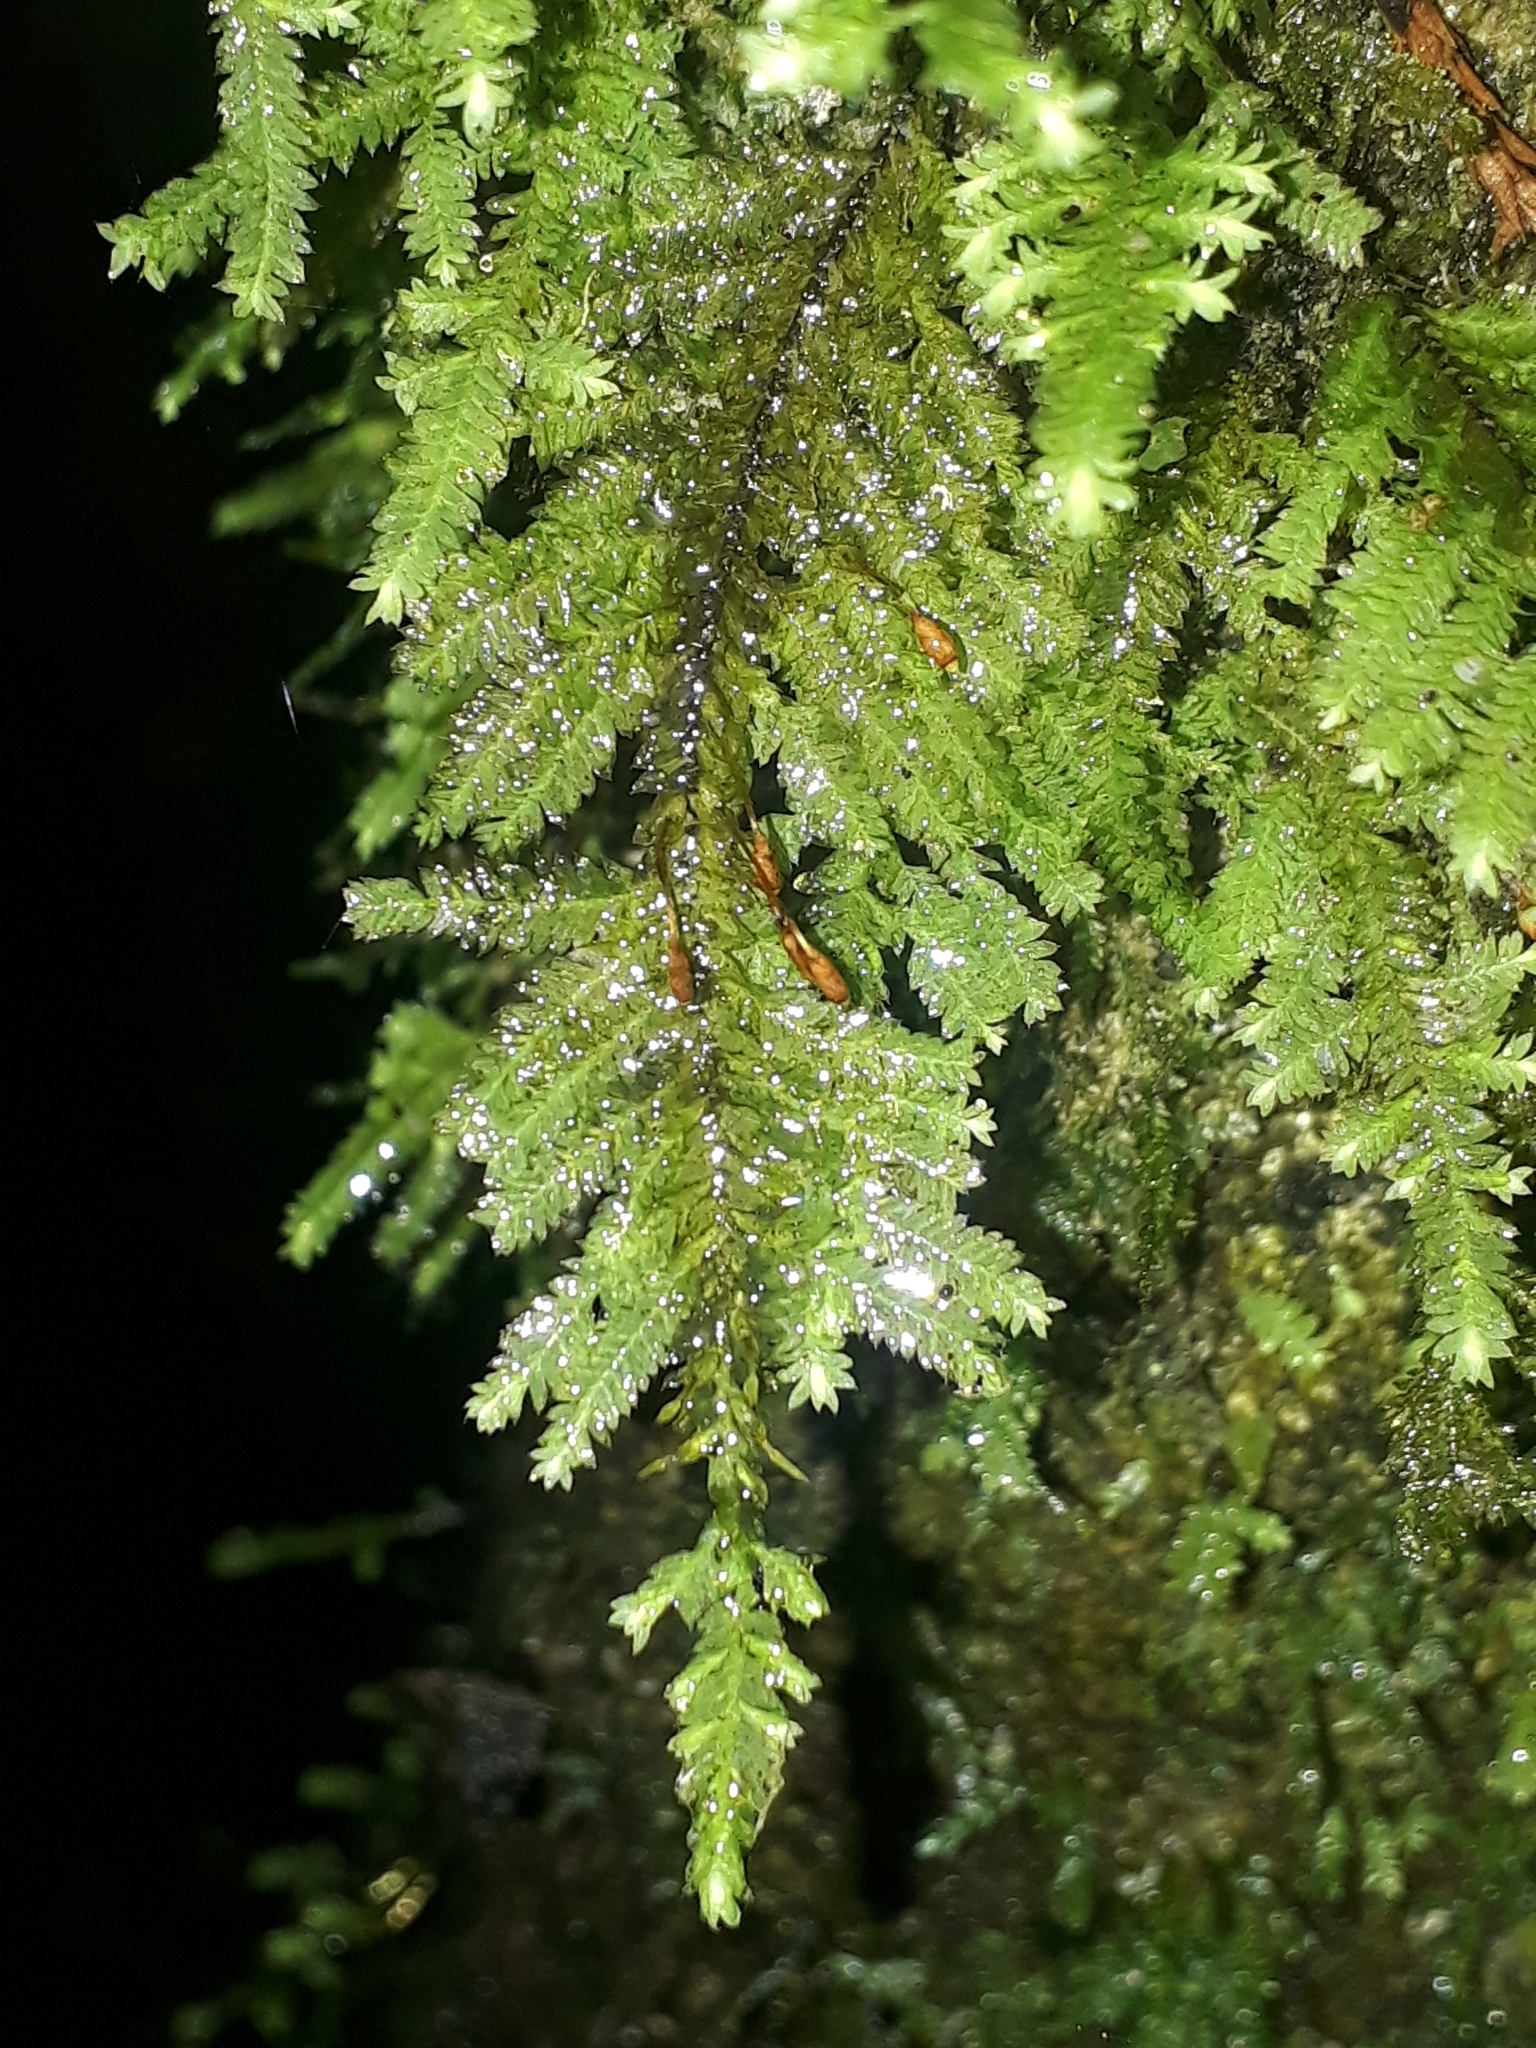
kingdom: Plantae
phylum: Bryophyta
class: Bryopsida
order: Hypopterygiales
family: Hypopterygiaceae
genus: Lopidium
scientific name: Lopidium concinnum
